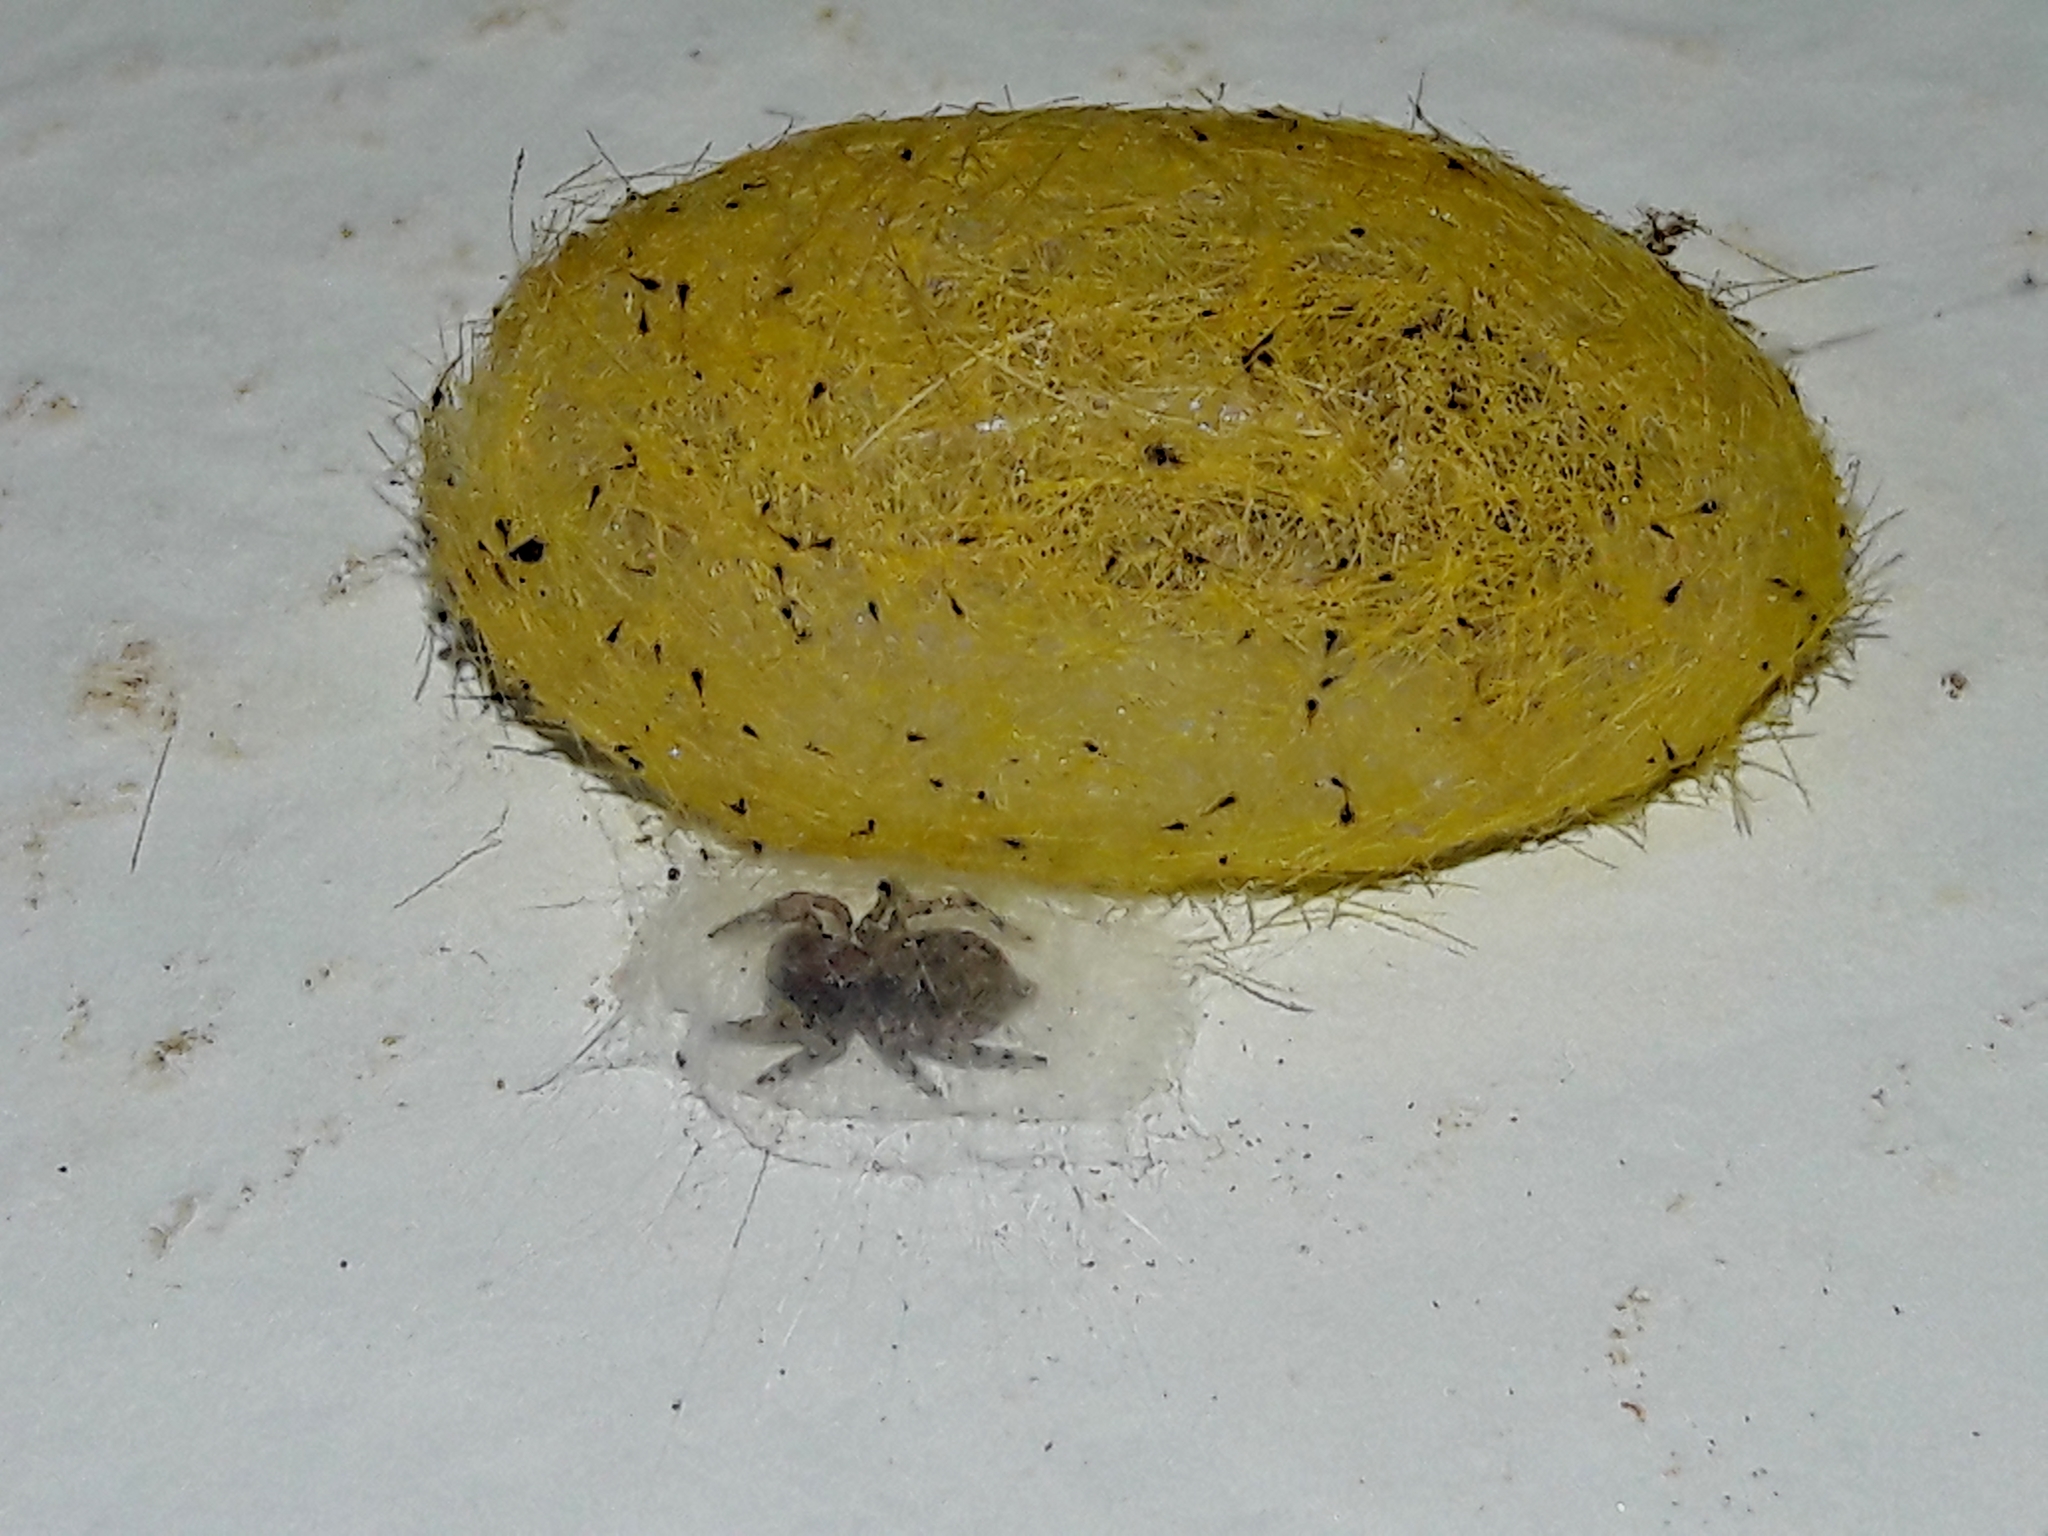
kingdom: Animalia
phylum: Arthropoda
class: Arachnida
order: Araneae
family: Salticidae
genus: Marma
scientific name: Marma nigritarsis
